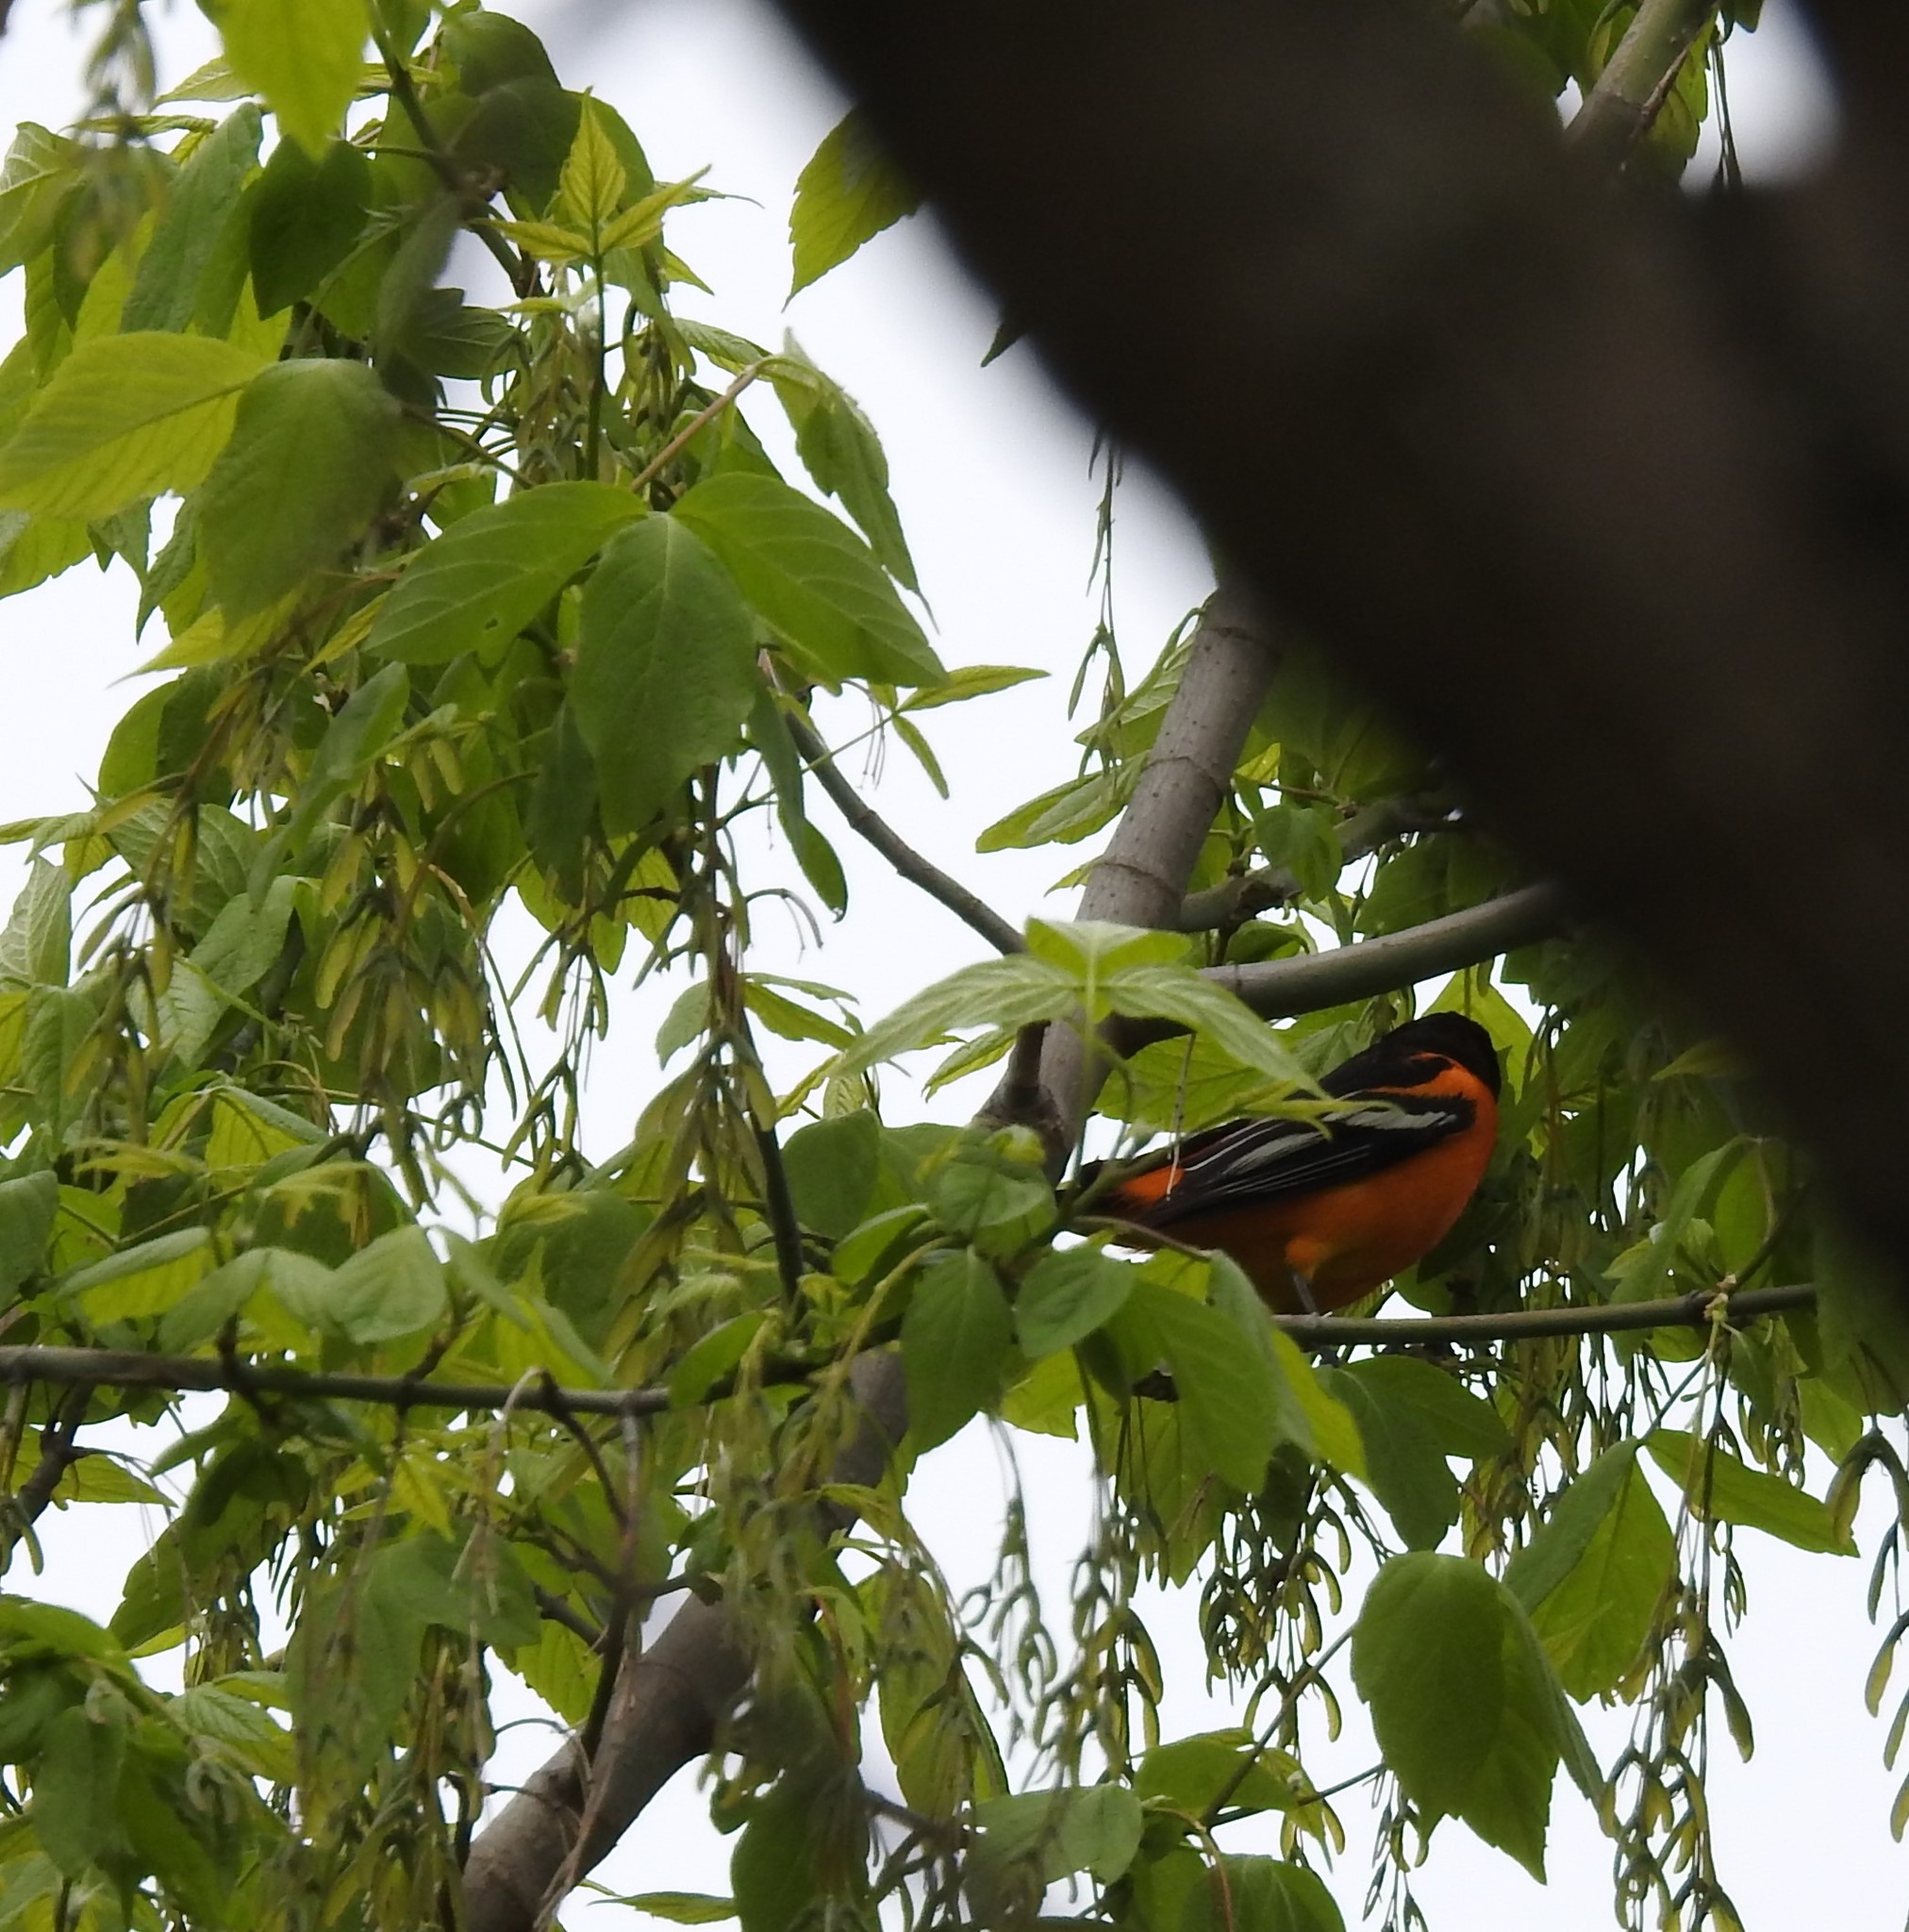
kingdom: Animalia
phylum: Chordata
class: Aves
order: Passeriformes
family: Icteridae
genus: Icterus
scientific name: Icterus galbula
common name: Baltimore oriole
